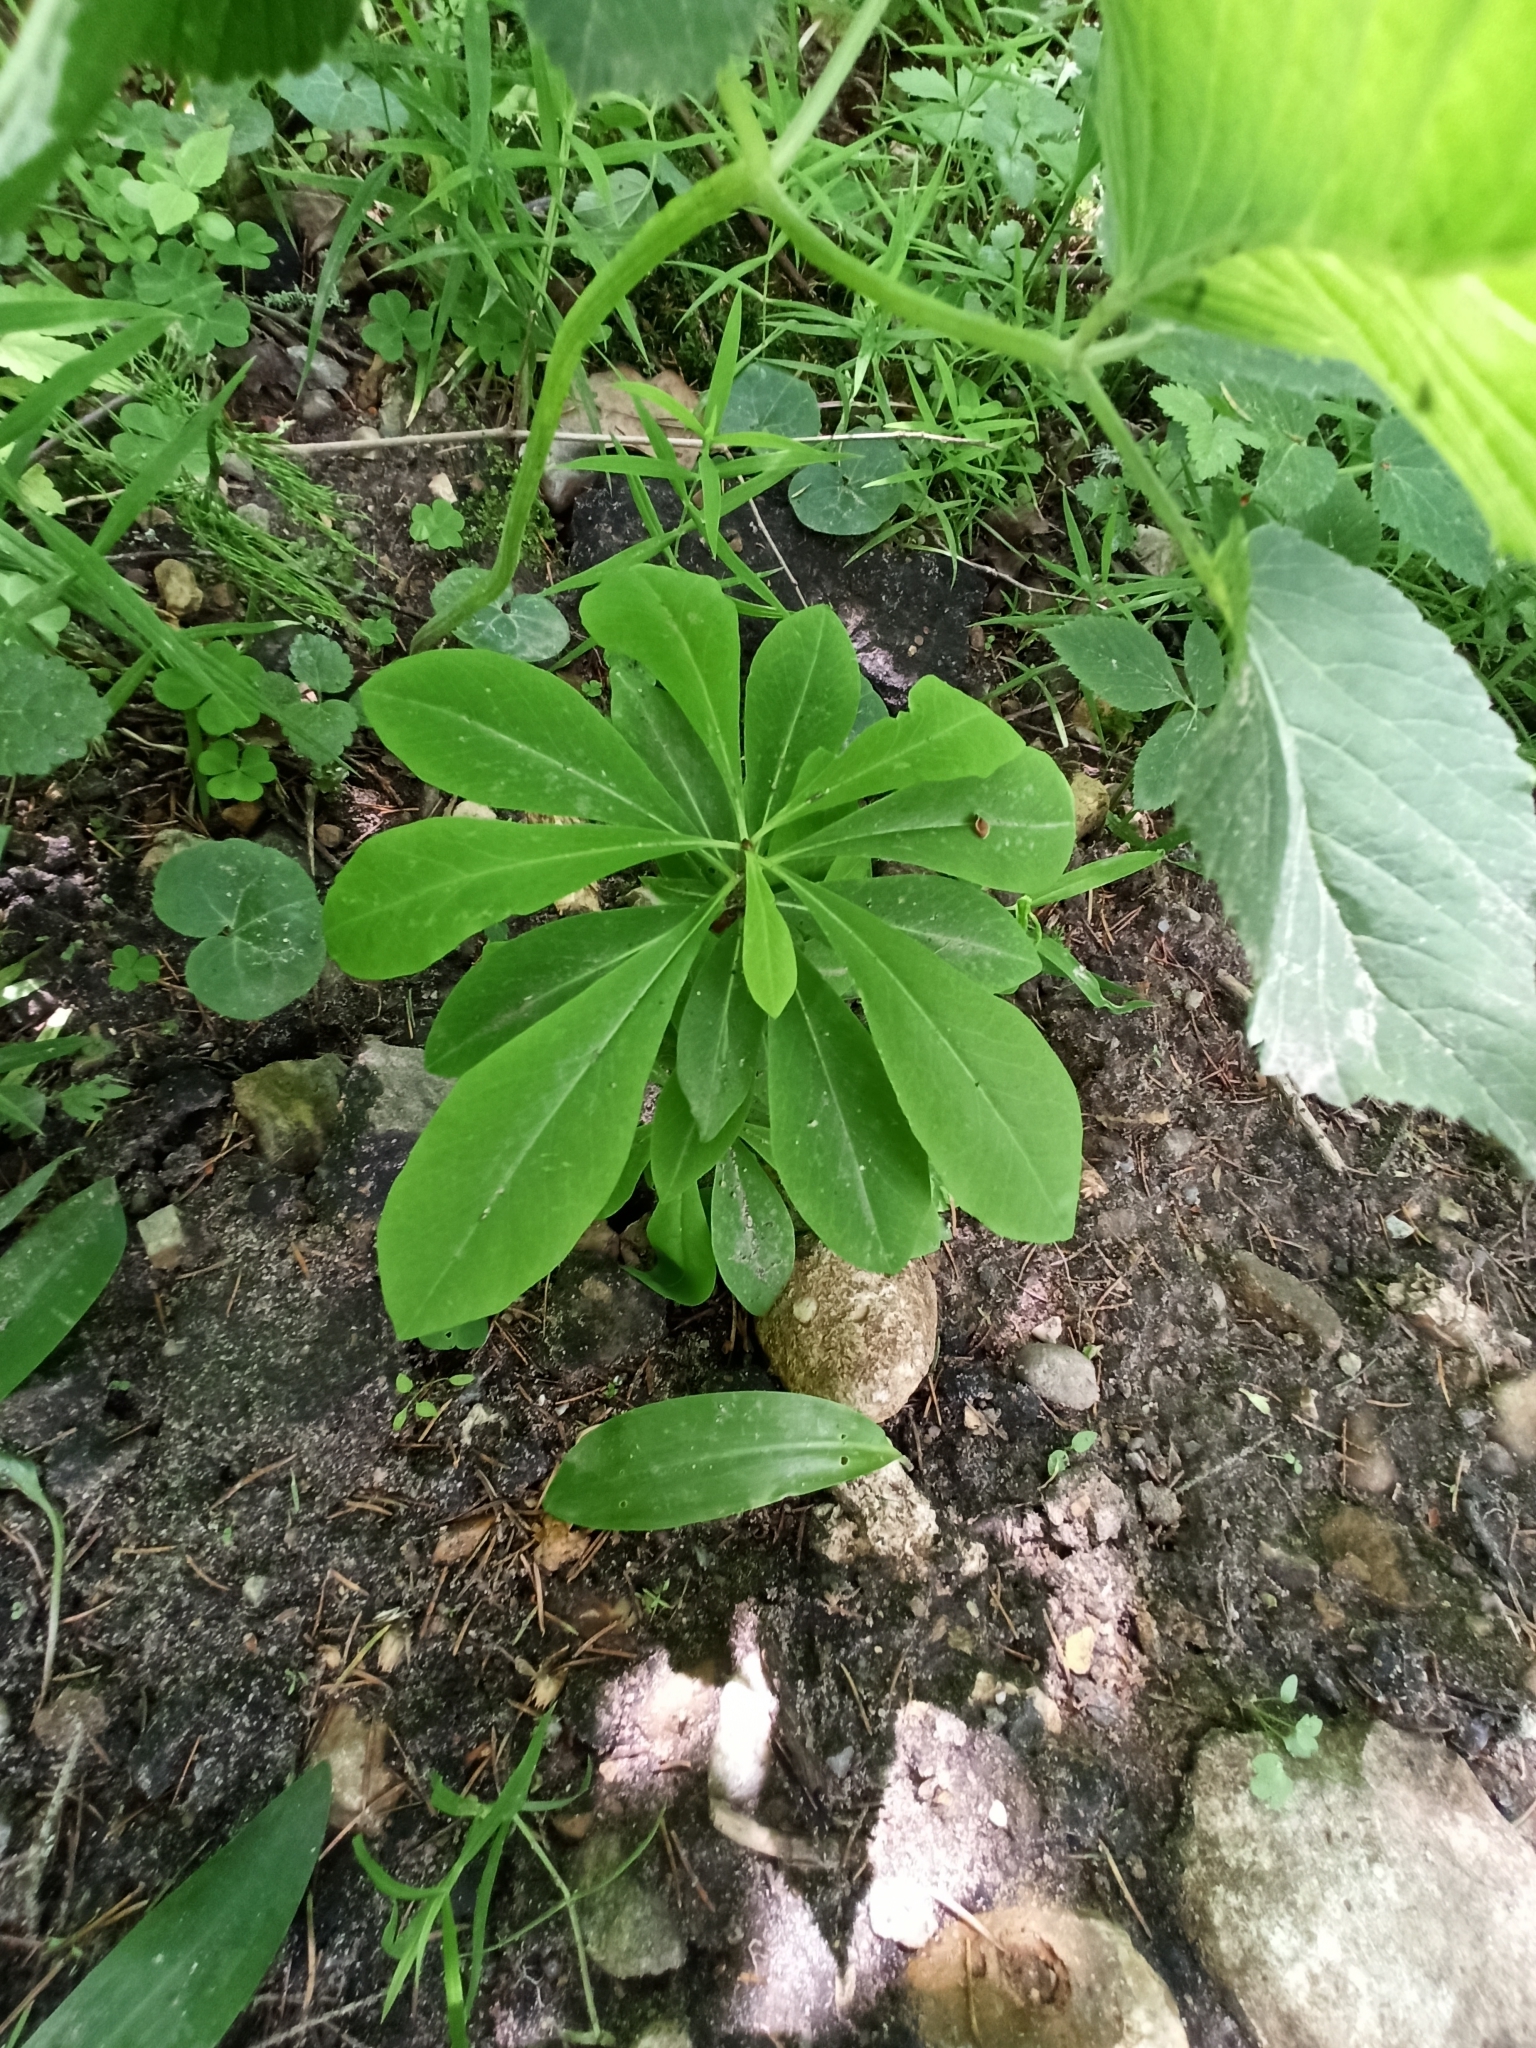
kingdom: Plantae
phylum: Tracheophyta
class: Magnoliopsida
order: Malvales
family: Thymelaeaceae
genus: Daphne
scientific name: Daphne mezereum
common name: Mezereon
